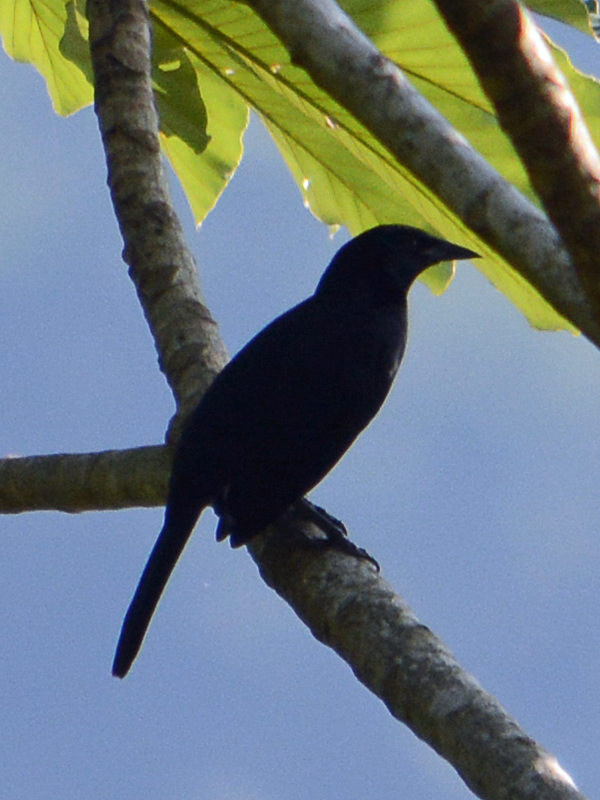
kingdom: Animalia
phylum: Chordata
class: Aves
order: Passeriformes
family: Icteridae
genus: Dives
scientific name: Dives dives
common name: Melodious blackbird
